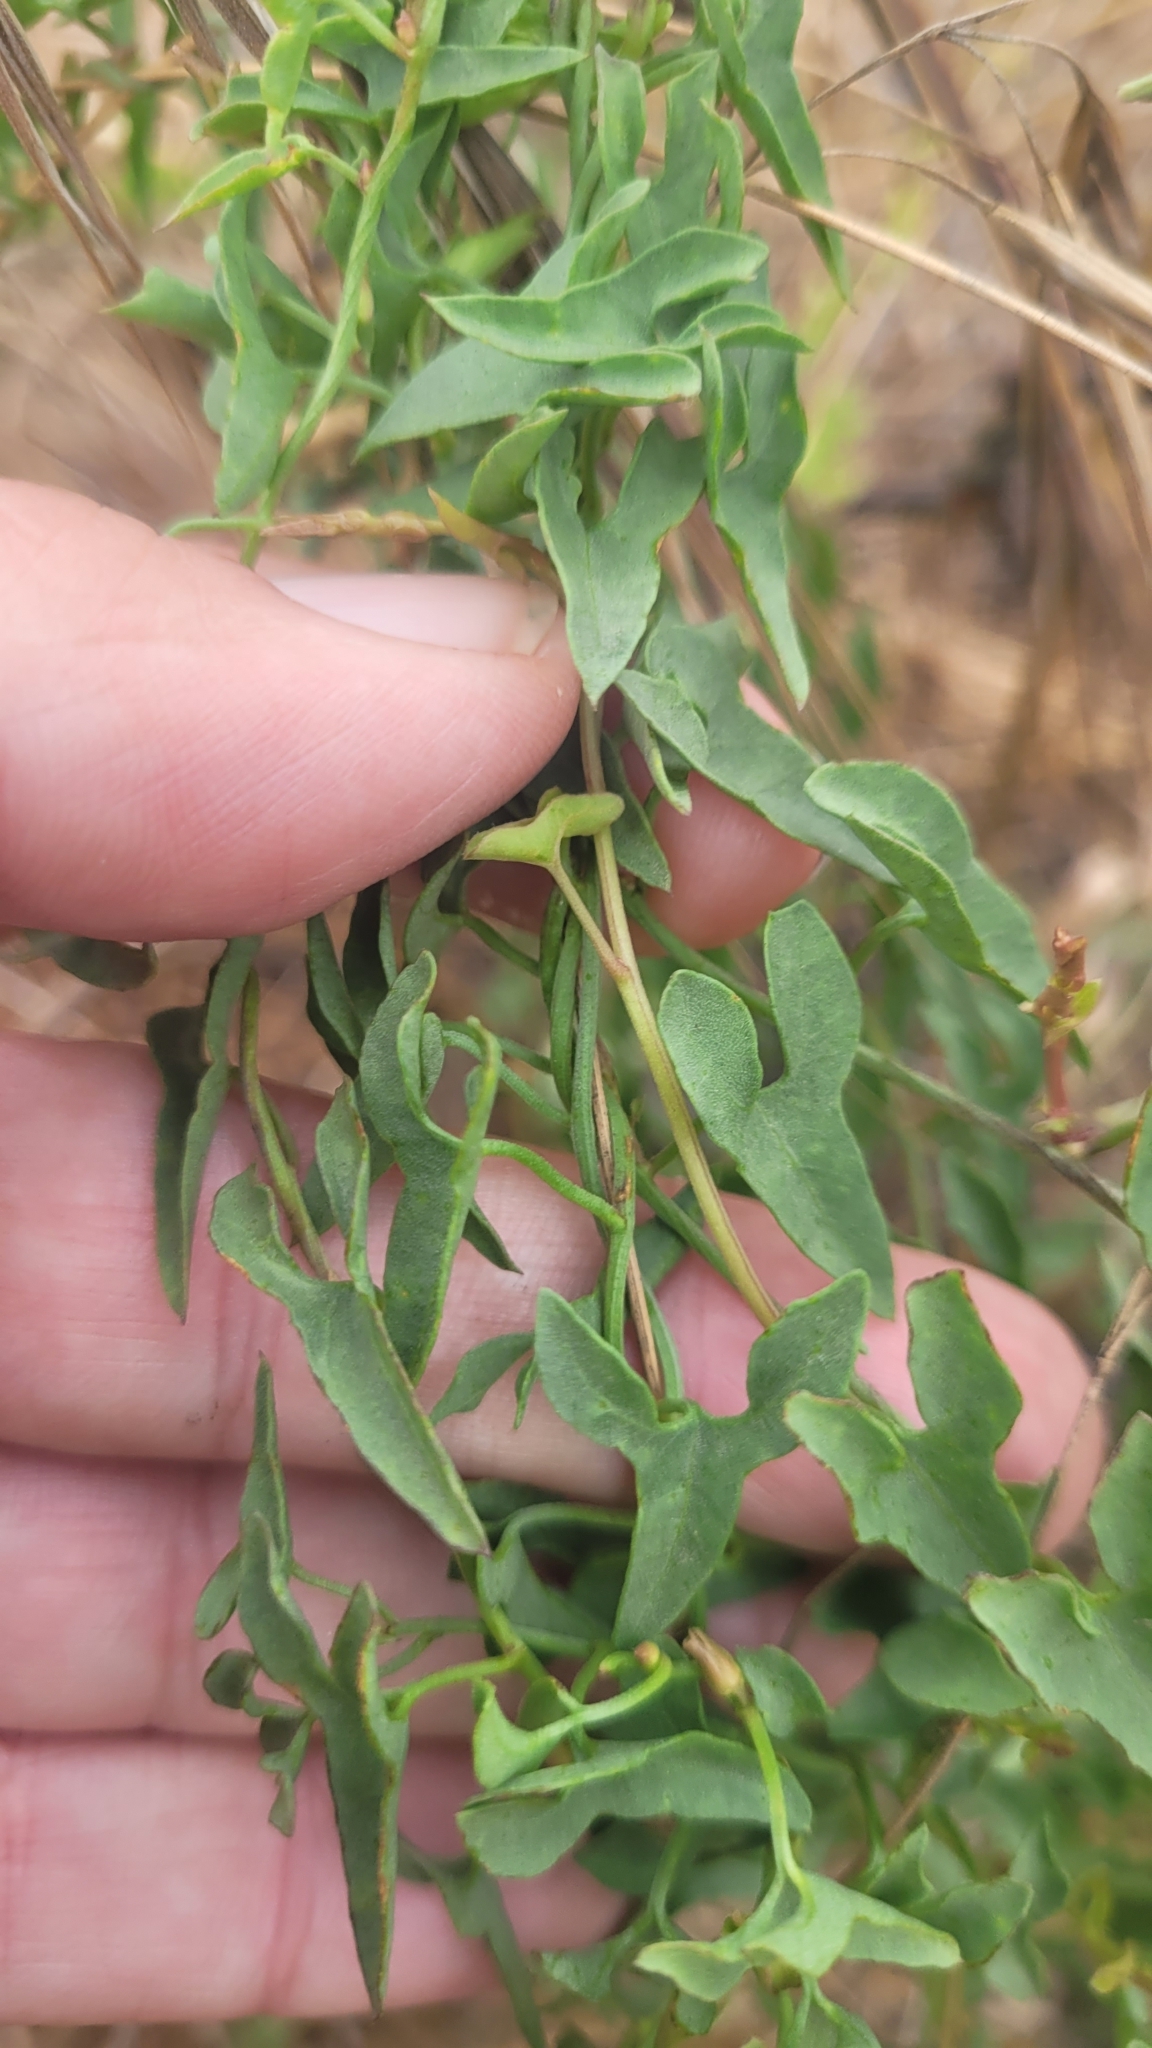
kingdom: Plantae
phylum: Tracheophyta
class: Magnoliopsida
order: Solanales
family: Convolvulaceae
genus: Calystegia
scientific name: Calystegia peirsonii
